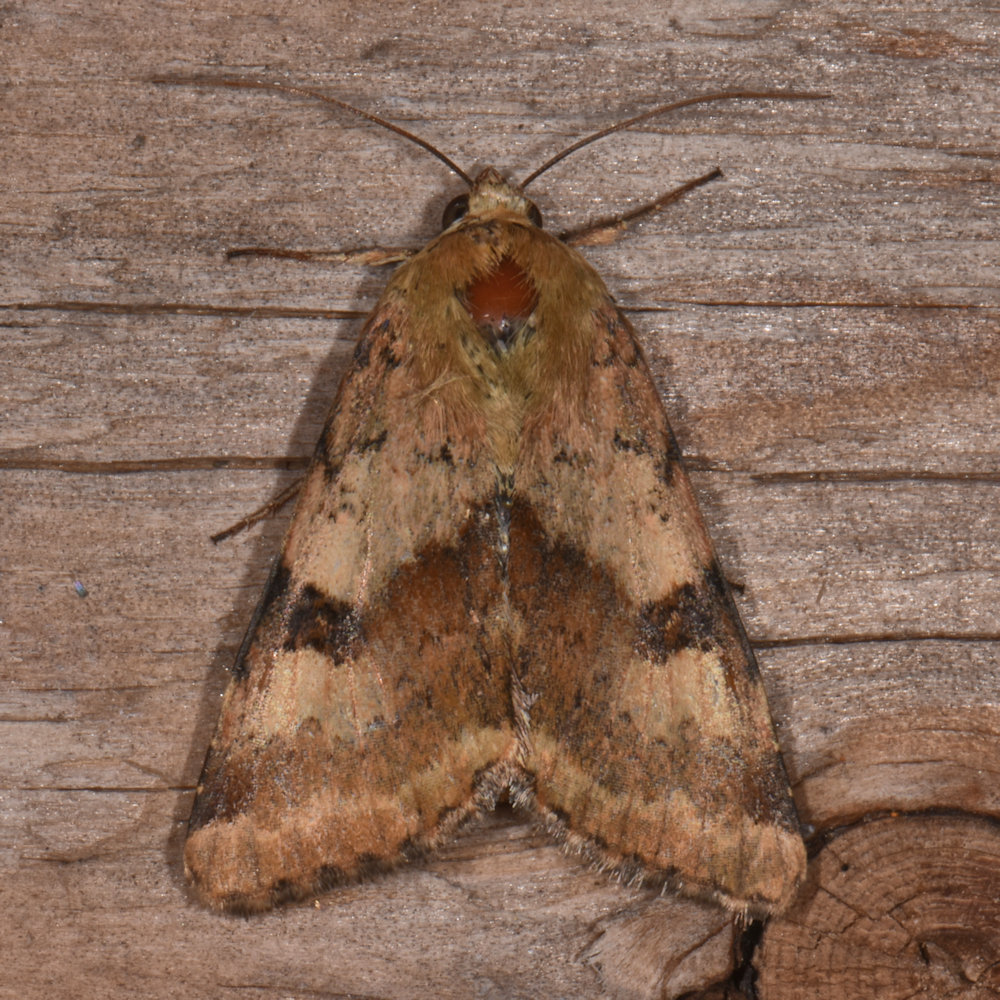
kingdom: Animalia
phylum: Arthropoda
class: Insecta
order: Lepidoptera
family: Noctuidae
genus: Heliothis
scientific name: Heliothis phloxiphaga
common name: Darker spotted straw moth
